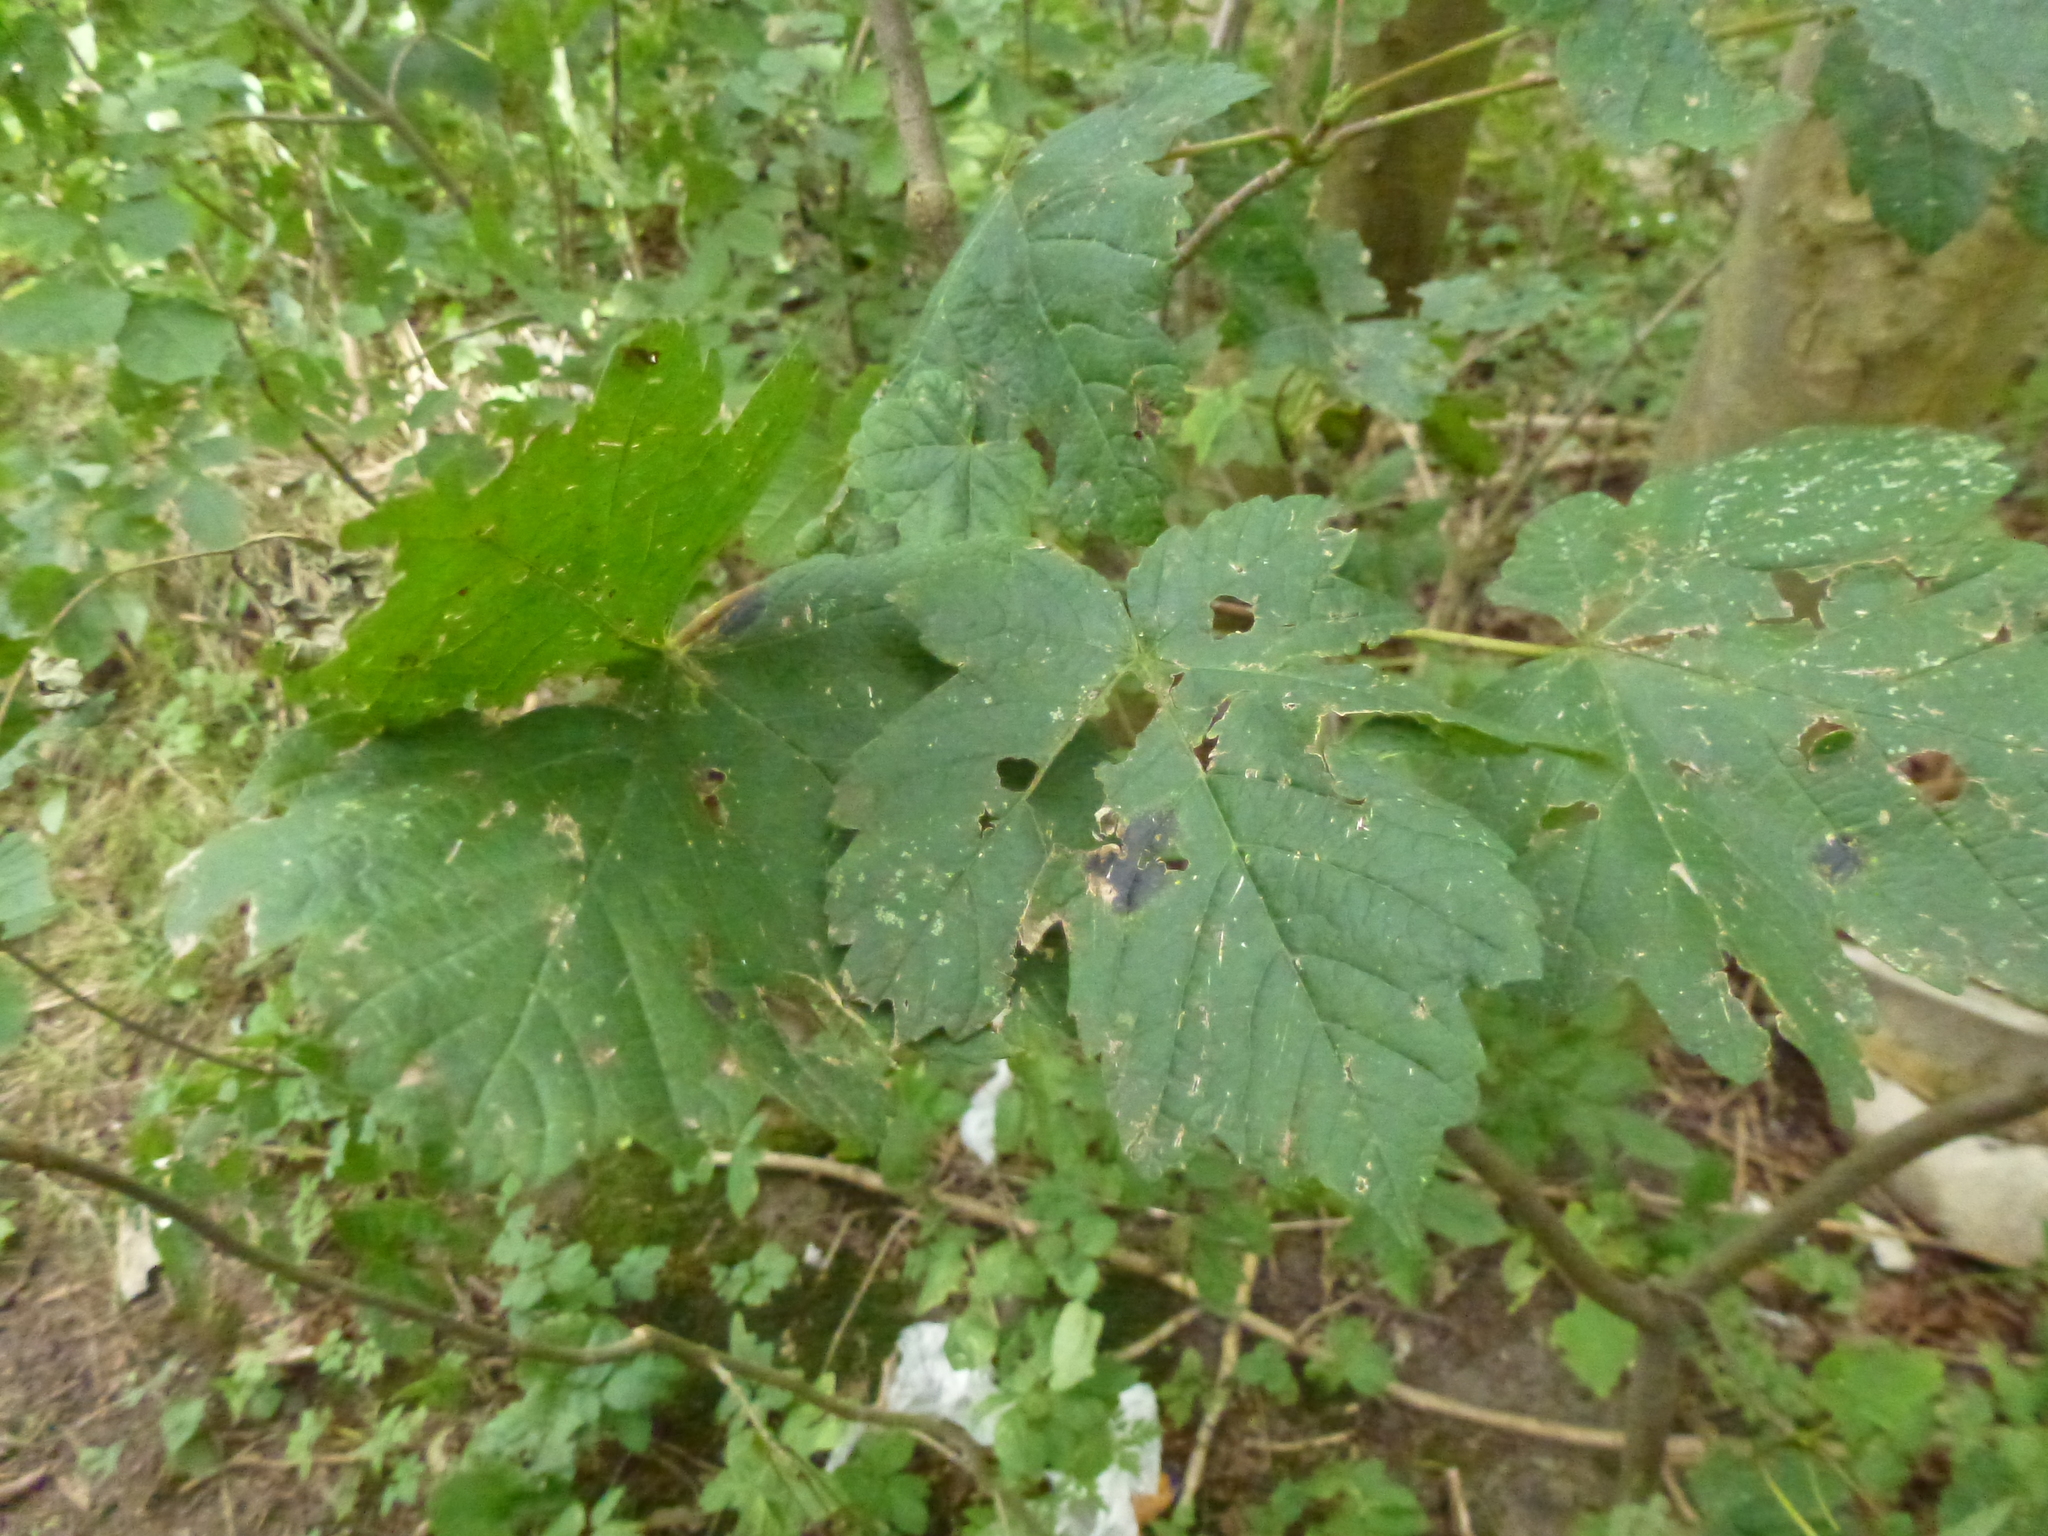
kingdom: Plantae
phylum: Tracheophyta
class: Magnoliopsida
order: Sapindales
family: Sapindaceae
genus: Acer
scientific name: Acer pseudoplatanus
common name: Sycamore
